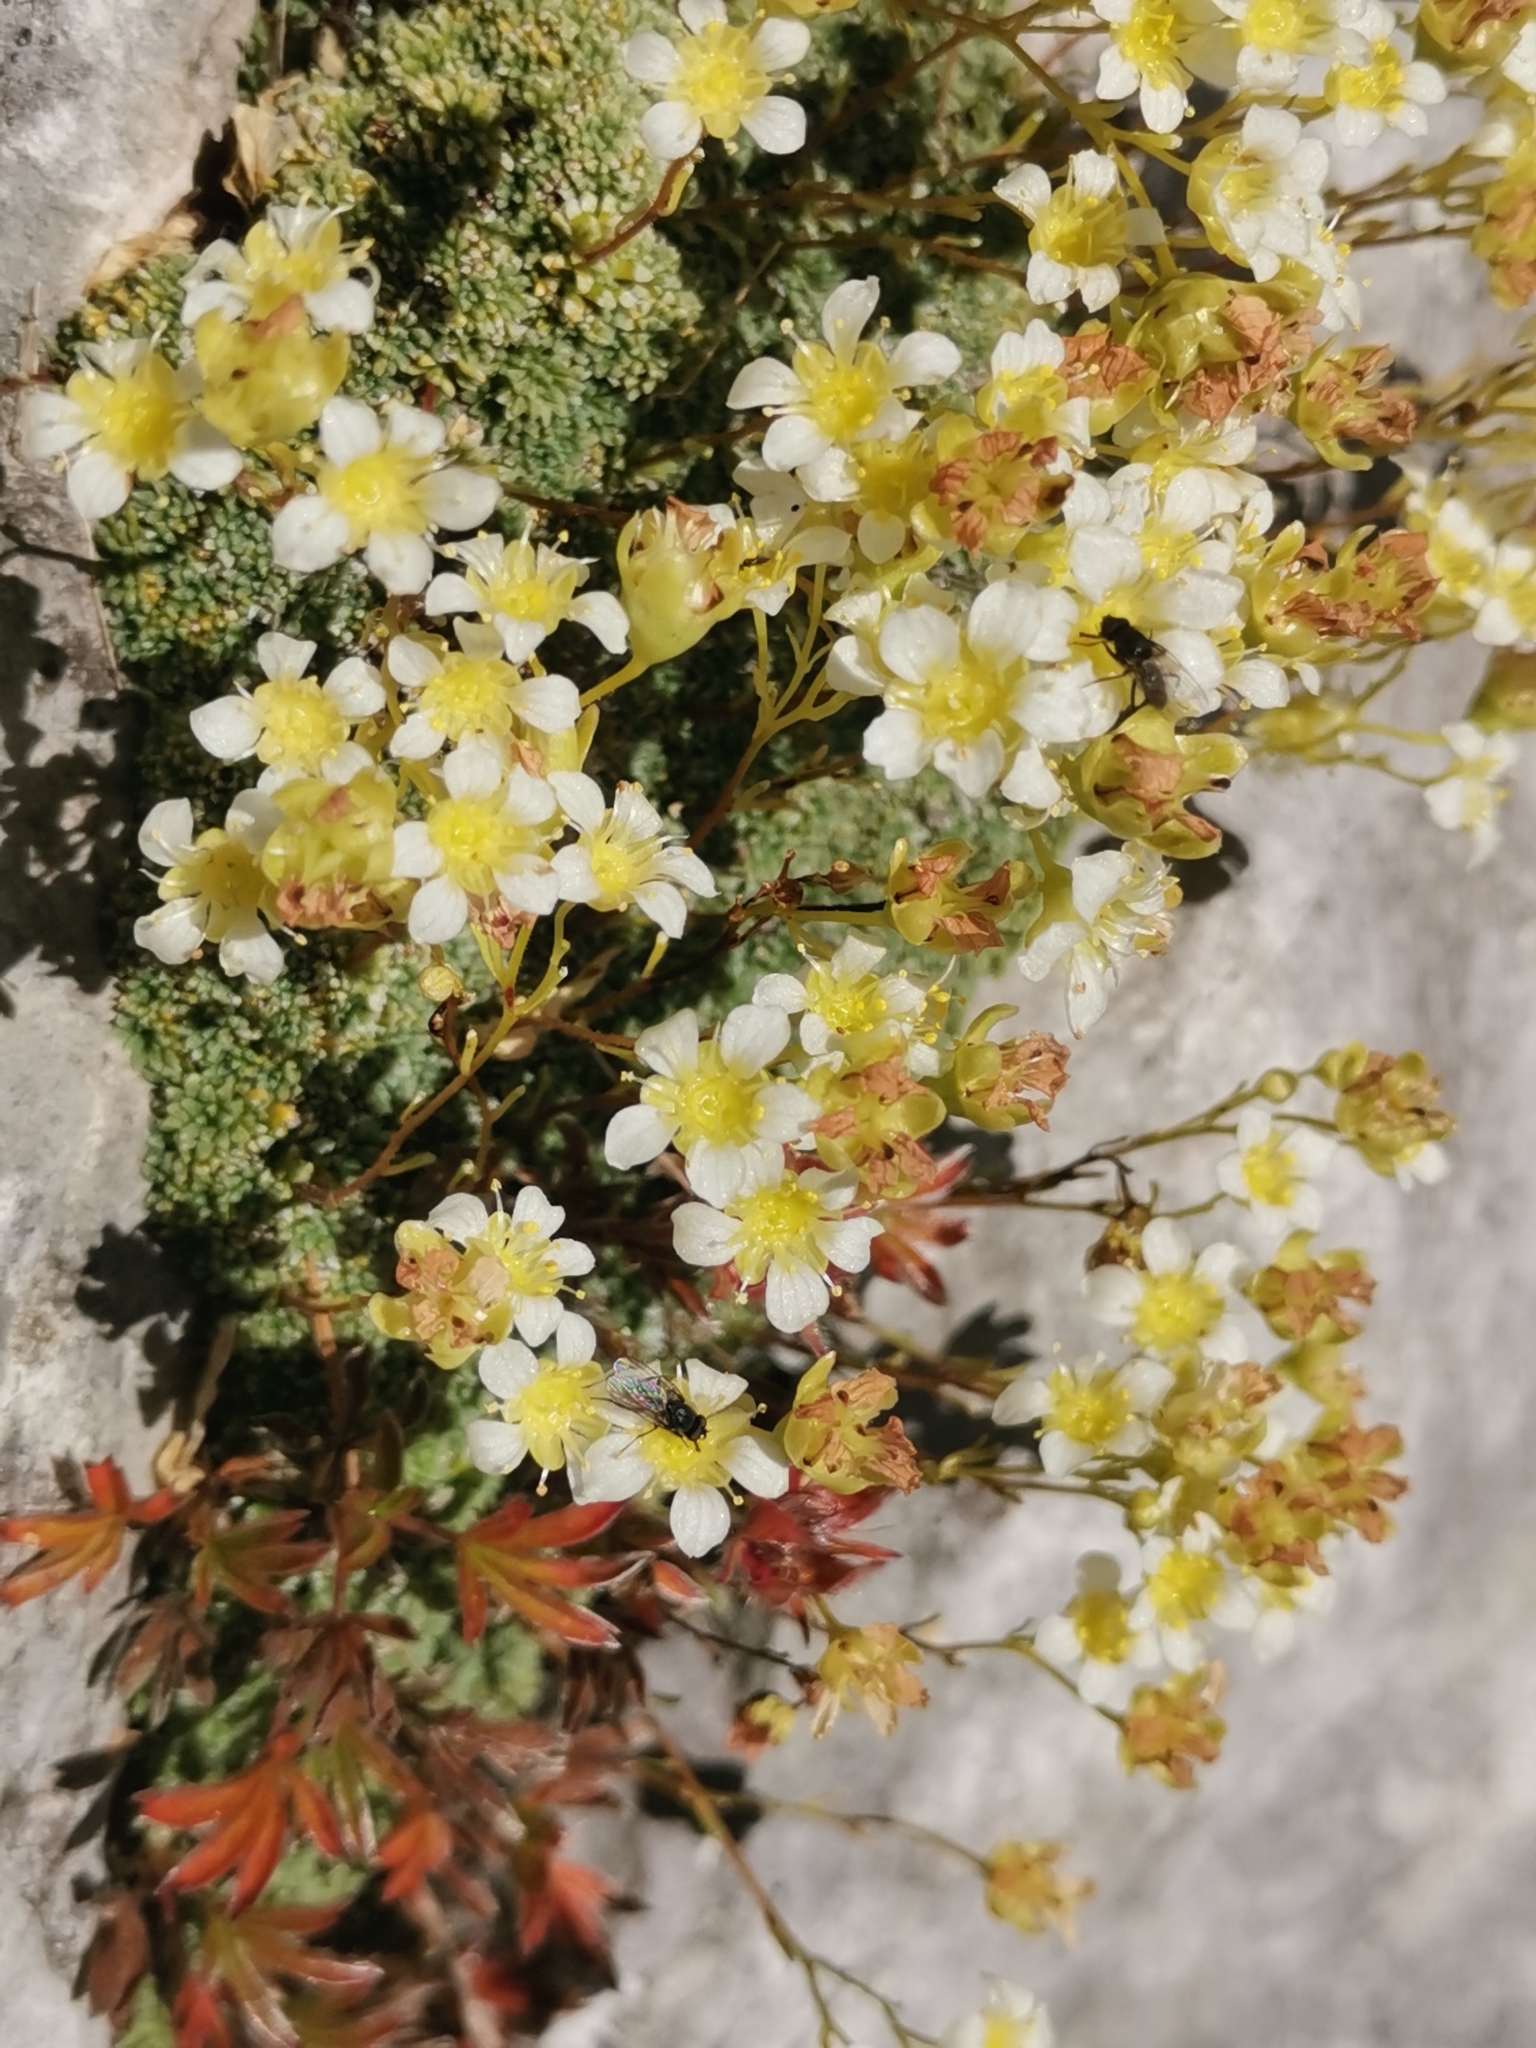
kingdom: Plantae
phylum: Tracheophyta
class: Magnoliopsida
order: Saxifragales
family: Saxifragaceae
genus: Saxifraga
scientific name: Saxifraga squarrosa
